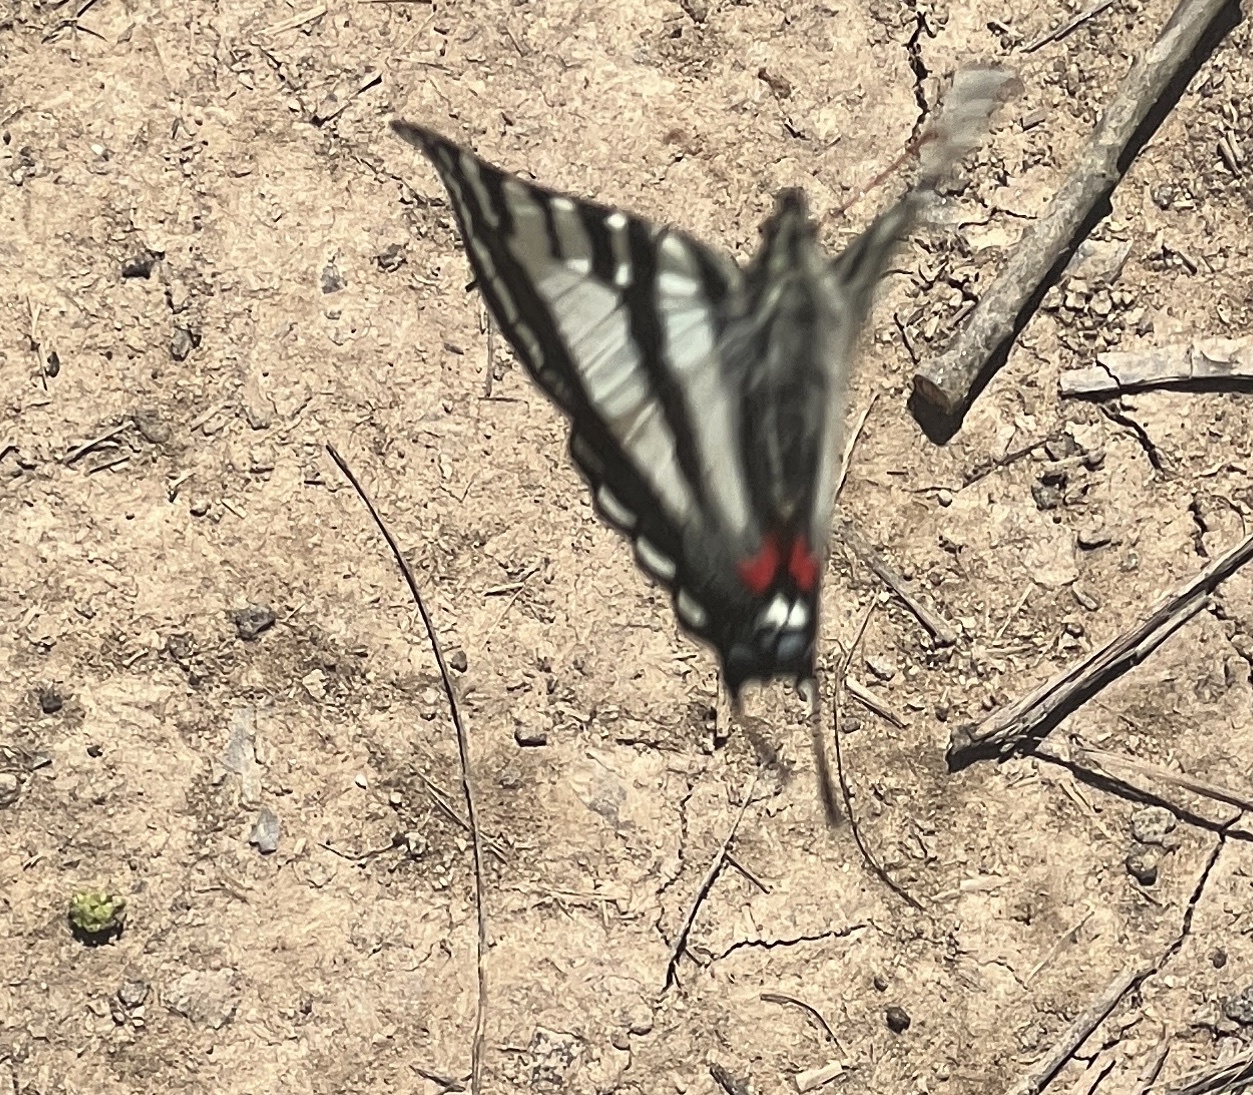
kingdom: Animalia
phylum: Arthropoda
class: Insecta
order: Lepidoptera
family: Papilionidae
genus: Protographium
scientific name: Protographium marcellus
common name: Zebra swallowtail
